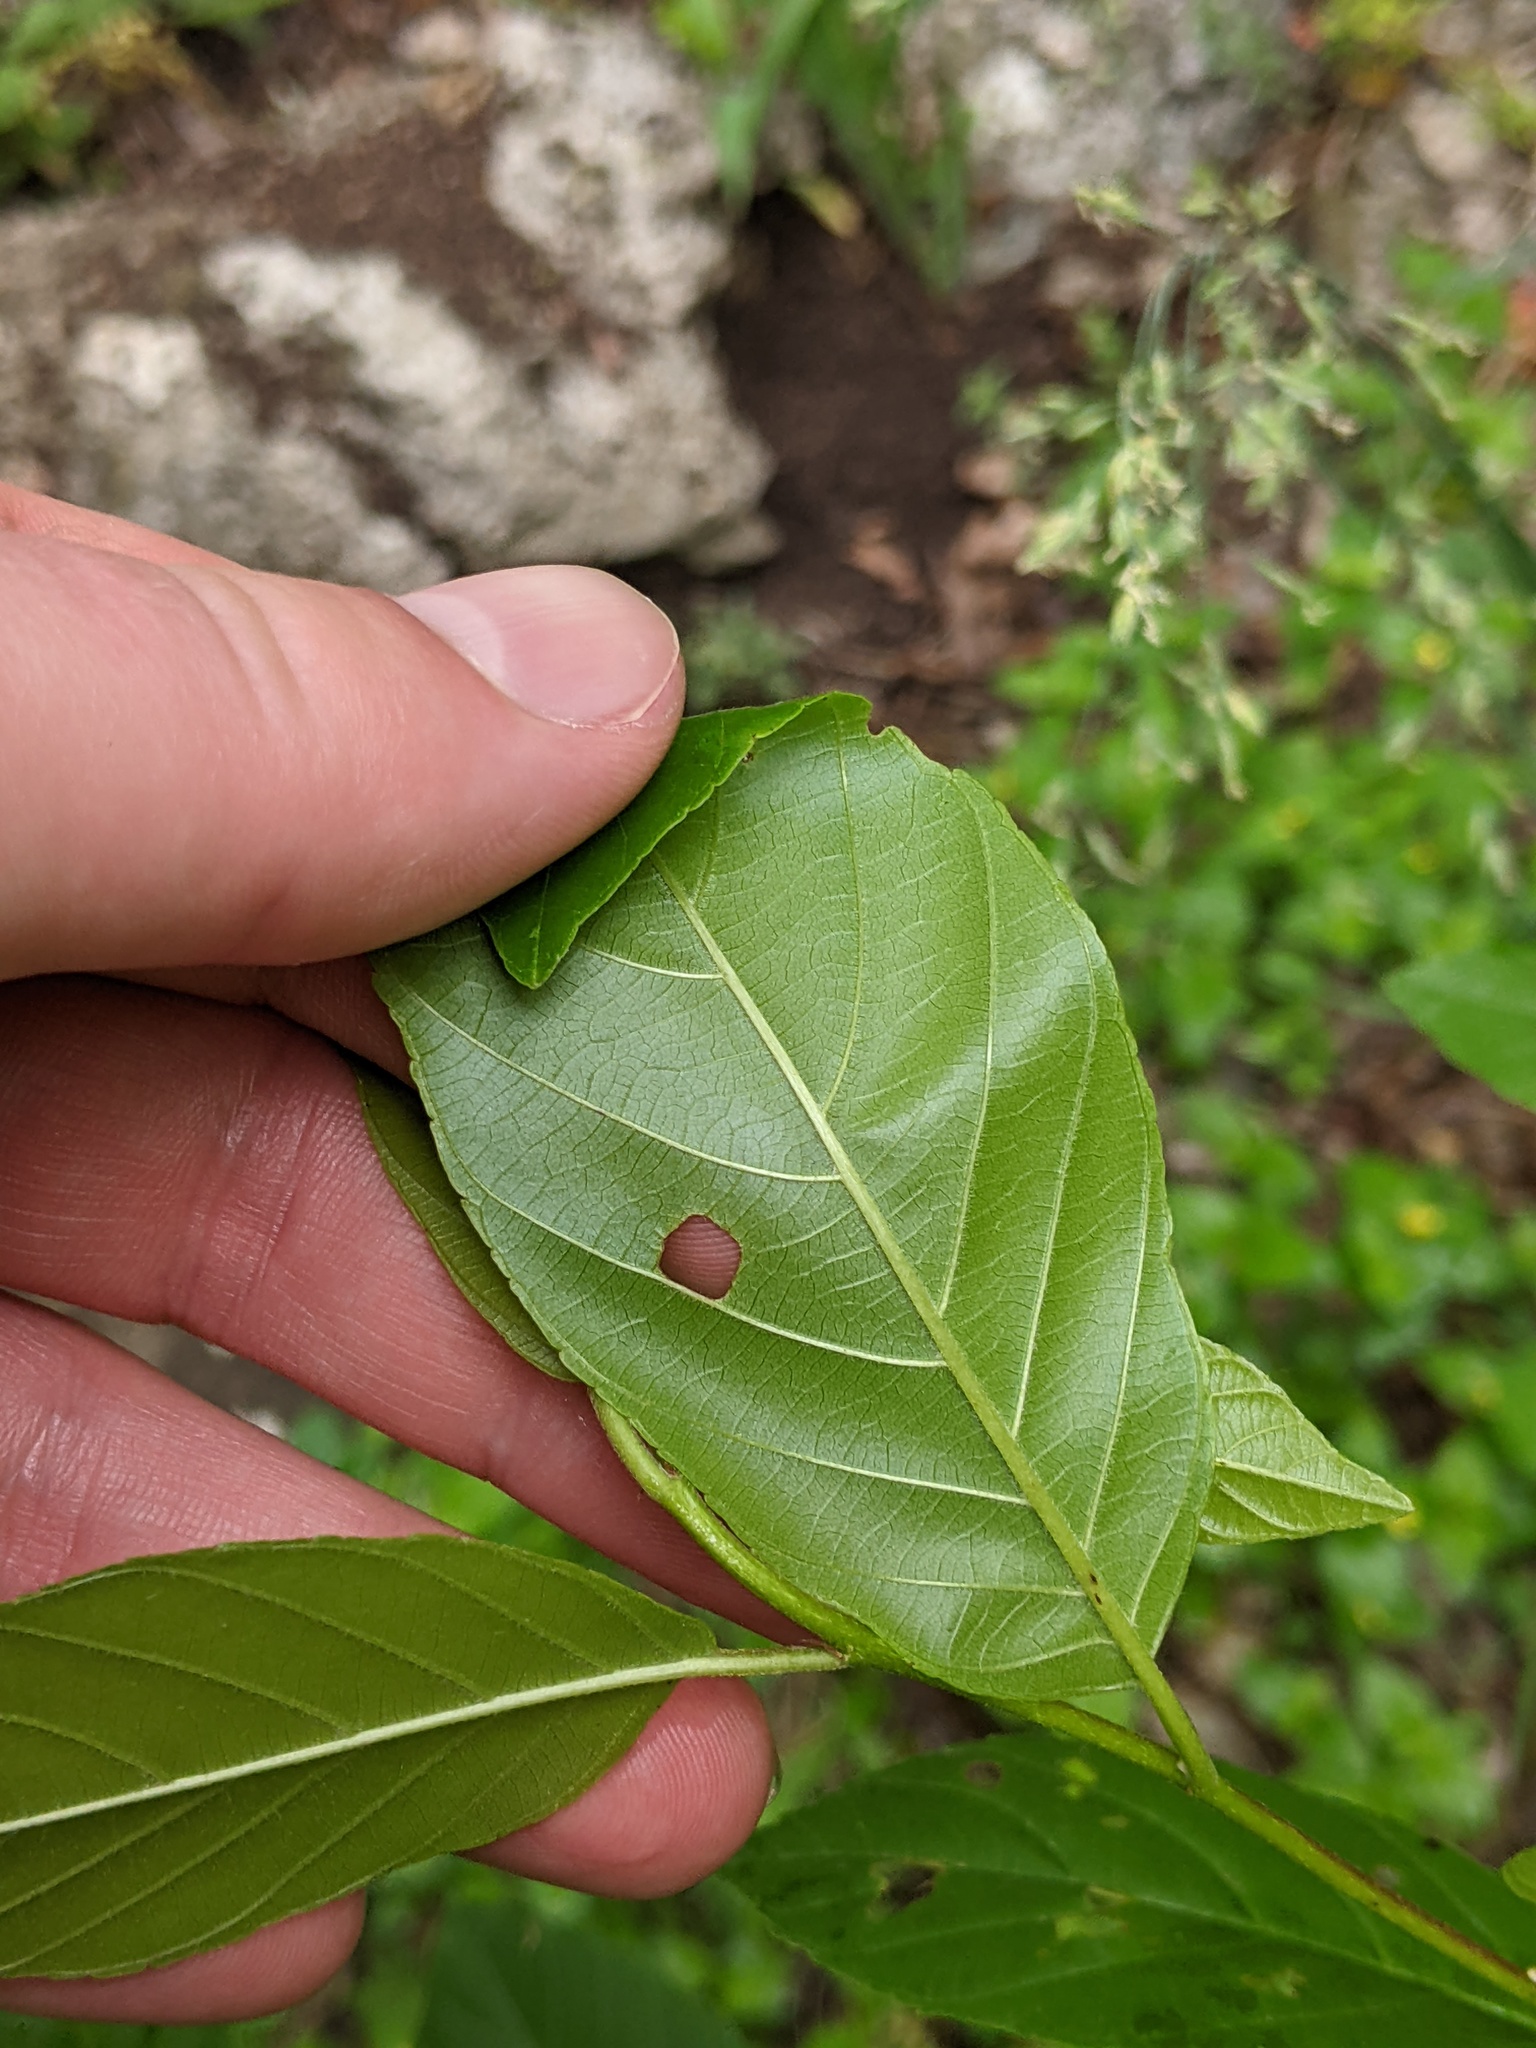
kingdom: Plantae
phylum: Tracheophyta
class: Magnoliopsida
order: Rosales
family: Rhamnaceae
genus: Frangula
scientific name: Frangula caroliniana
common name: Carolina buckthorn
